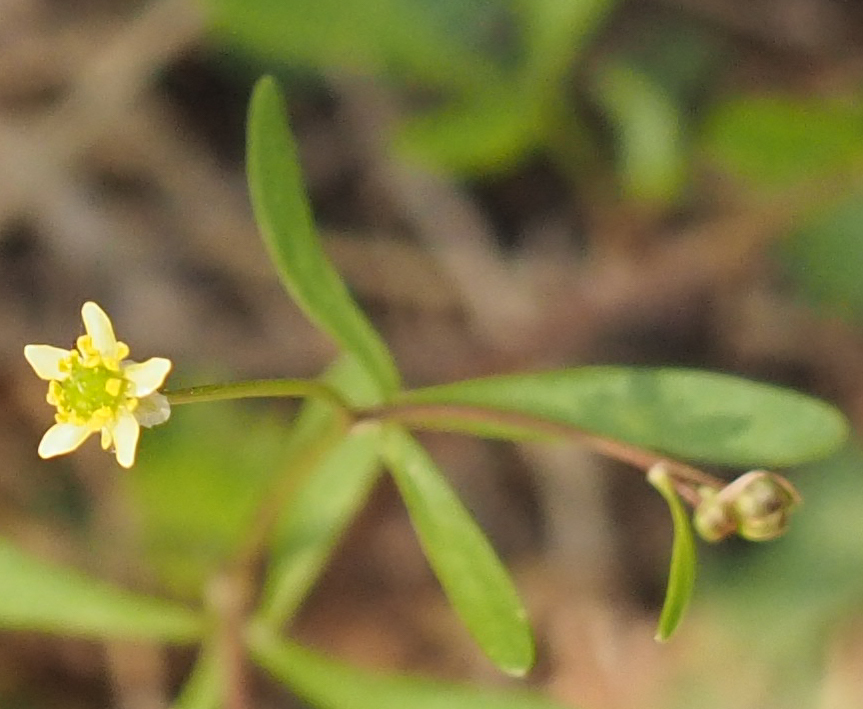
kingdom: Plantae
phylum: Tracheophyta
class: Magnoliopsida
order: Ranunculales
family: Ranunculaceae
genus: Ranunculus
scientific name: Ranunculus abortivus
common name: Early wood buttercup
